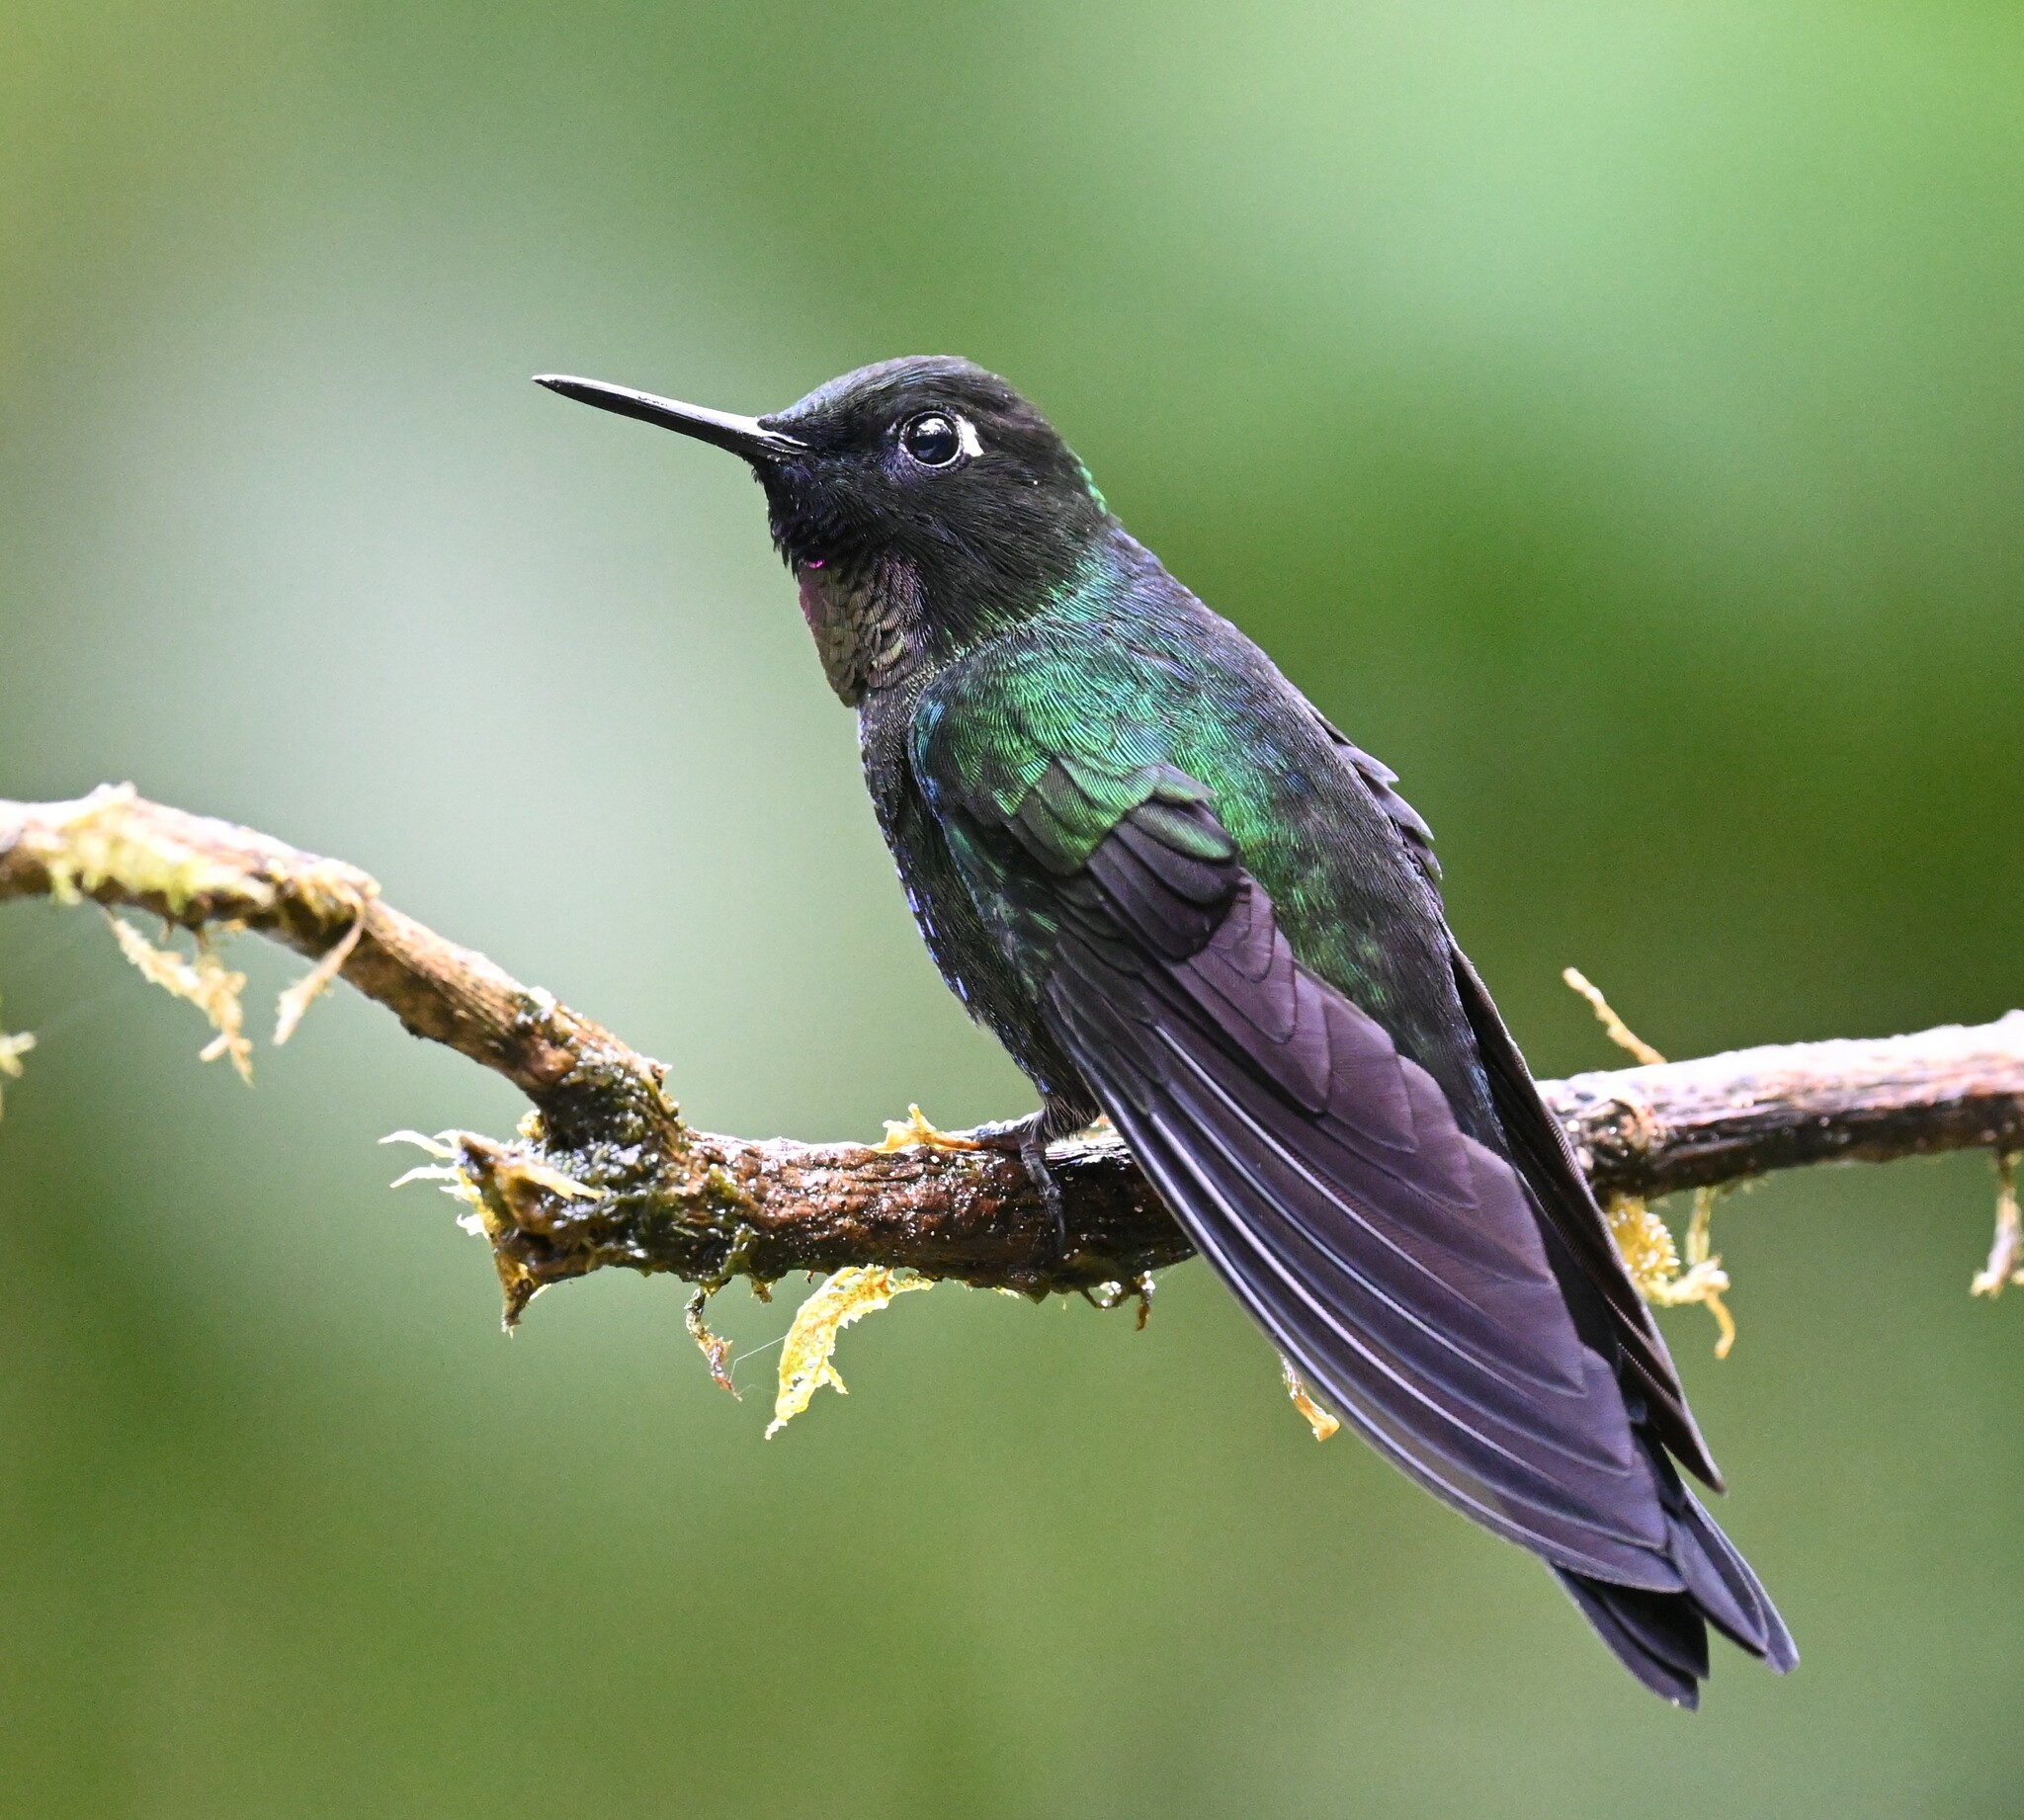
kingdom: Animalia
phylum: Chordata
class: Aves
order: Apodiformes
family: Trochilidae
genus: Heliangelus
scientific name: Heliangelus exortis
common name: Tourmaline sunangel
